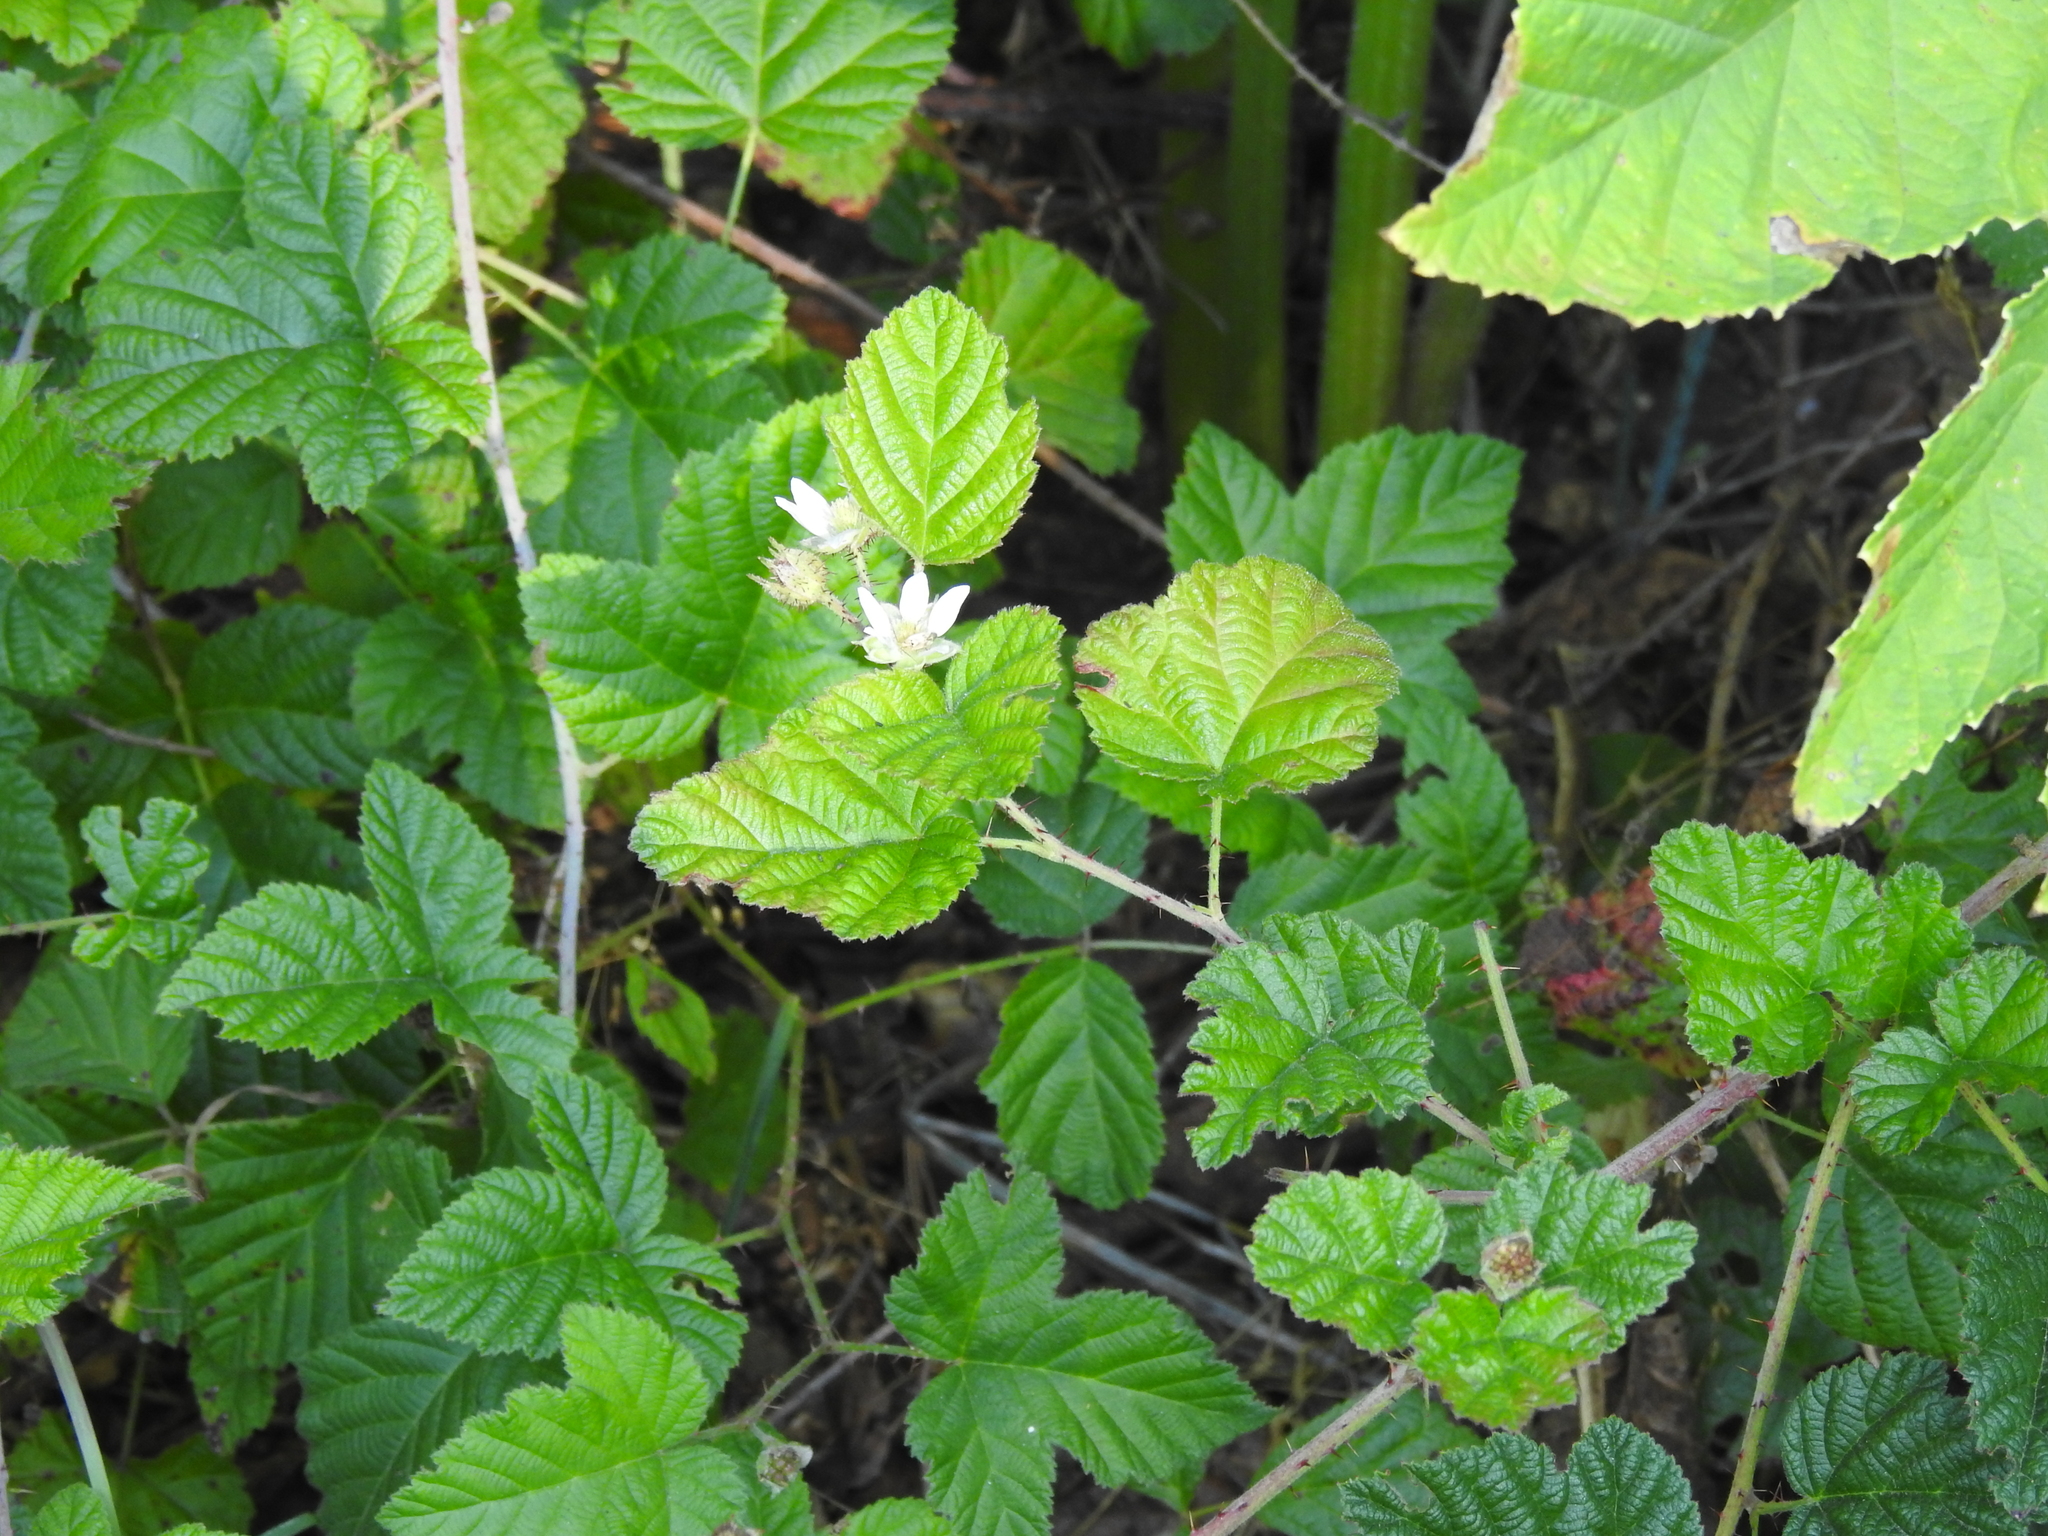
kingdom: Plantae
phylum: Tracheophyta
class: Magnoliopsida
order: Rosales
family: Rosaceae
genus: Rubus
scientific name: Rubus ursinus
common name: Pacific blackberry
